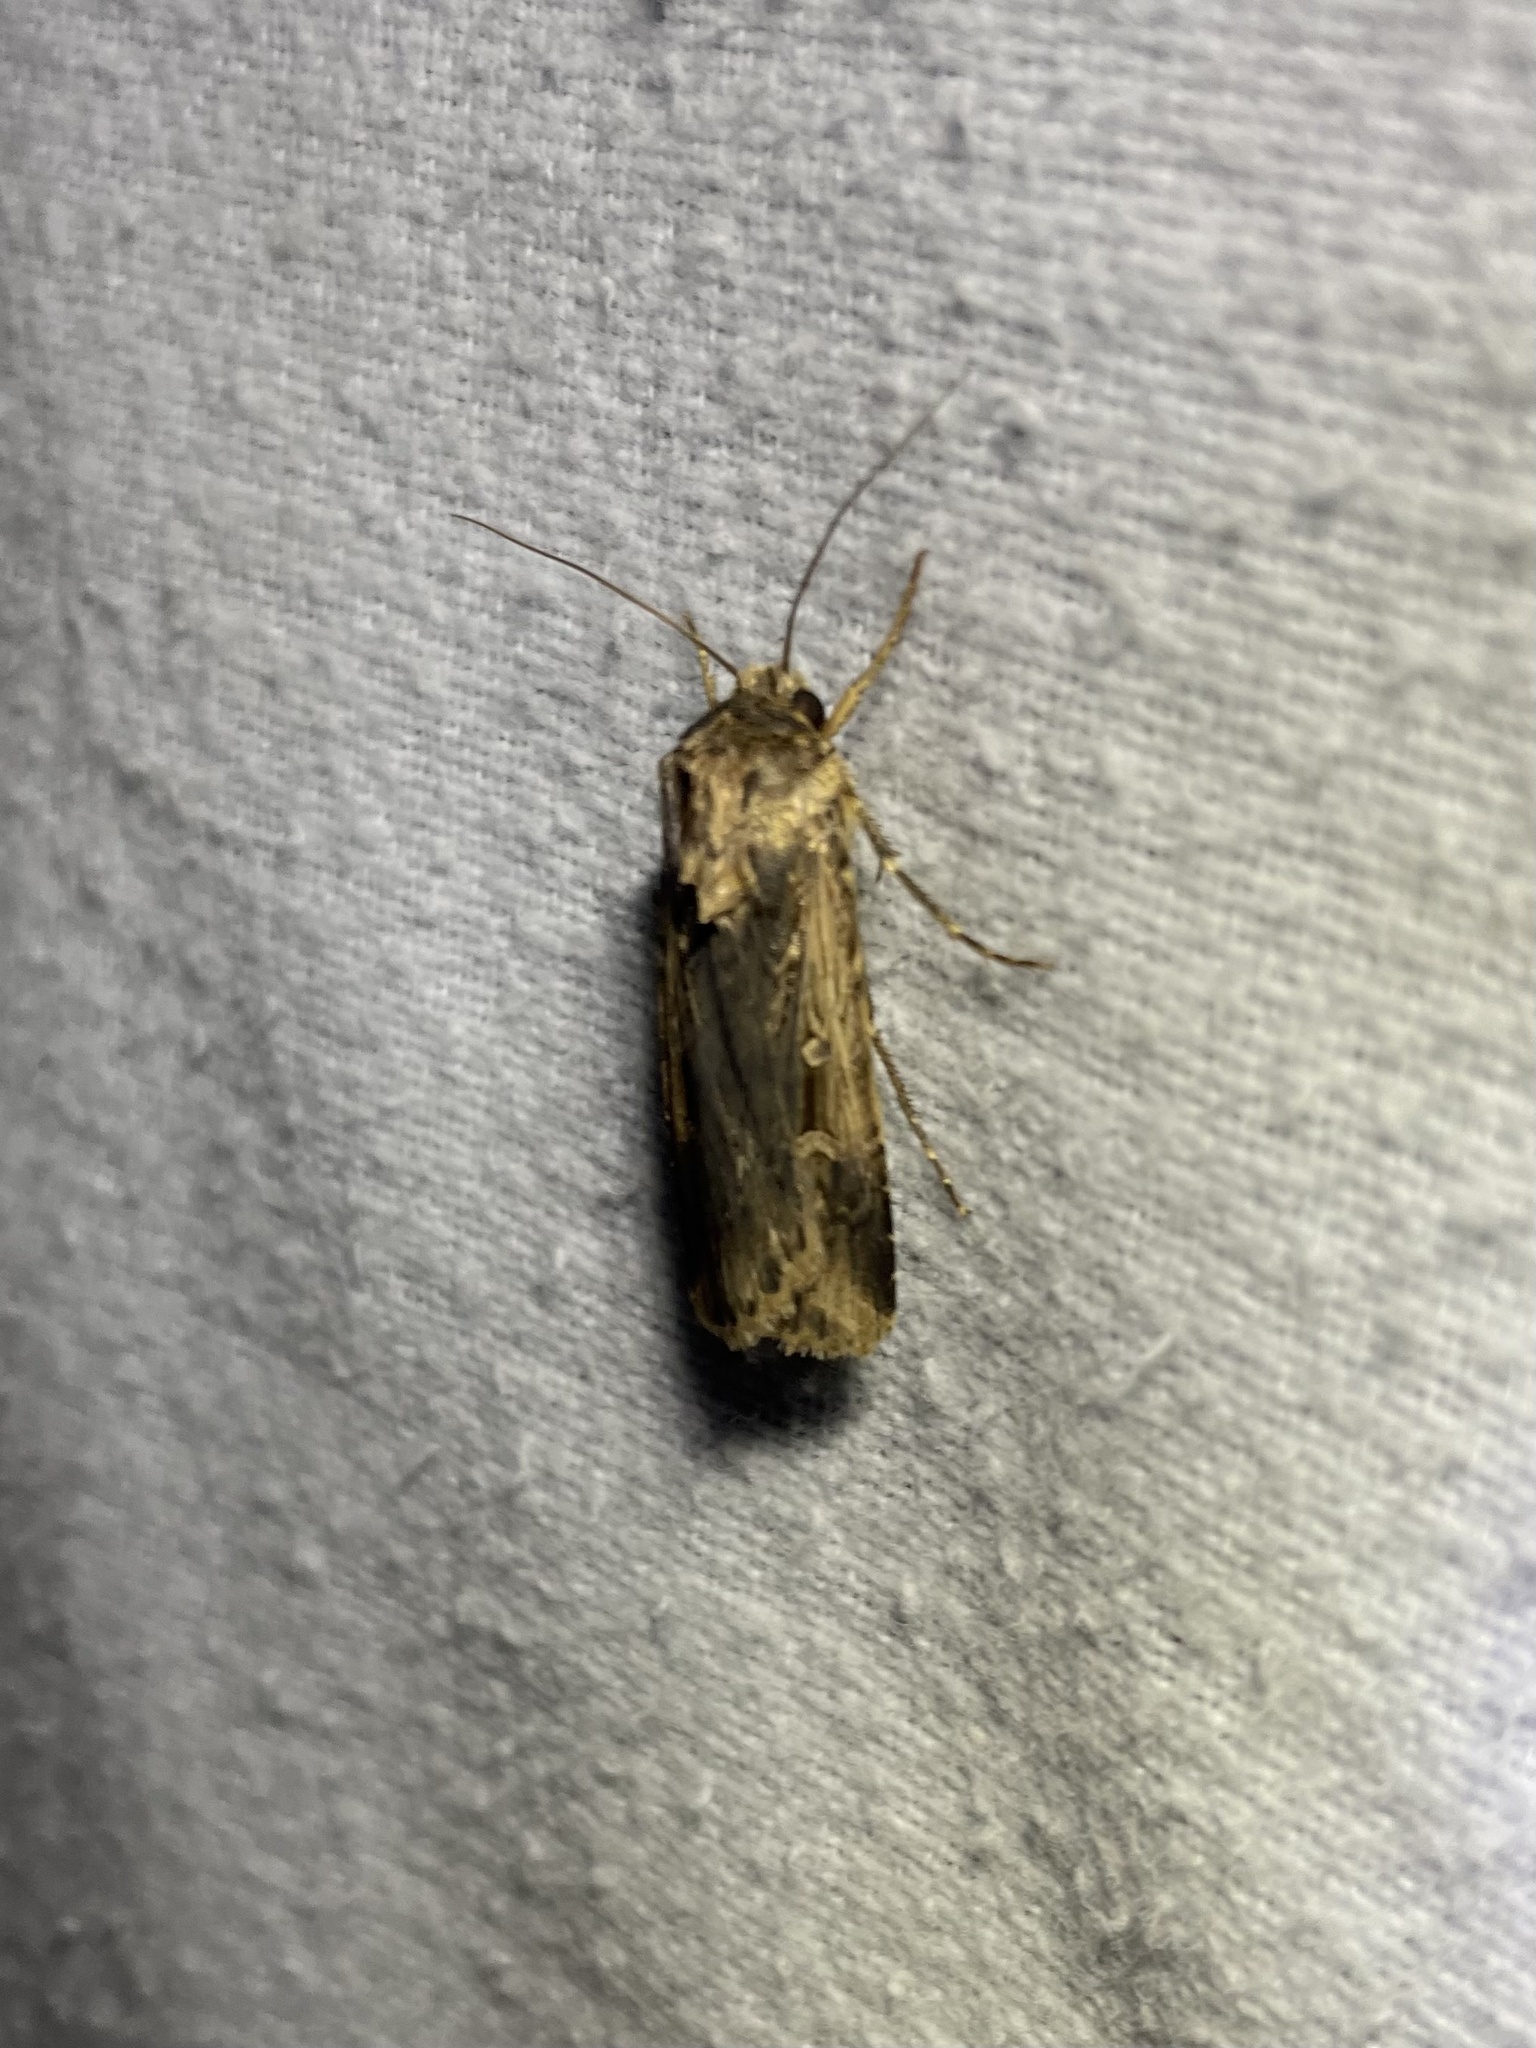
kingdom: Animalia
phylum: Arthropoda
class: Insecta
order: Lepidoptera
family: Noctuidae
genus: Feltia
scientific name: Feltia subterranea
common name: Granulate cutworm
